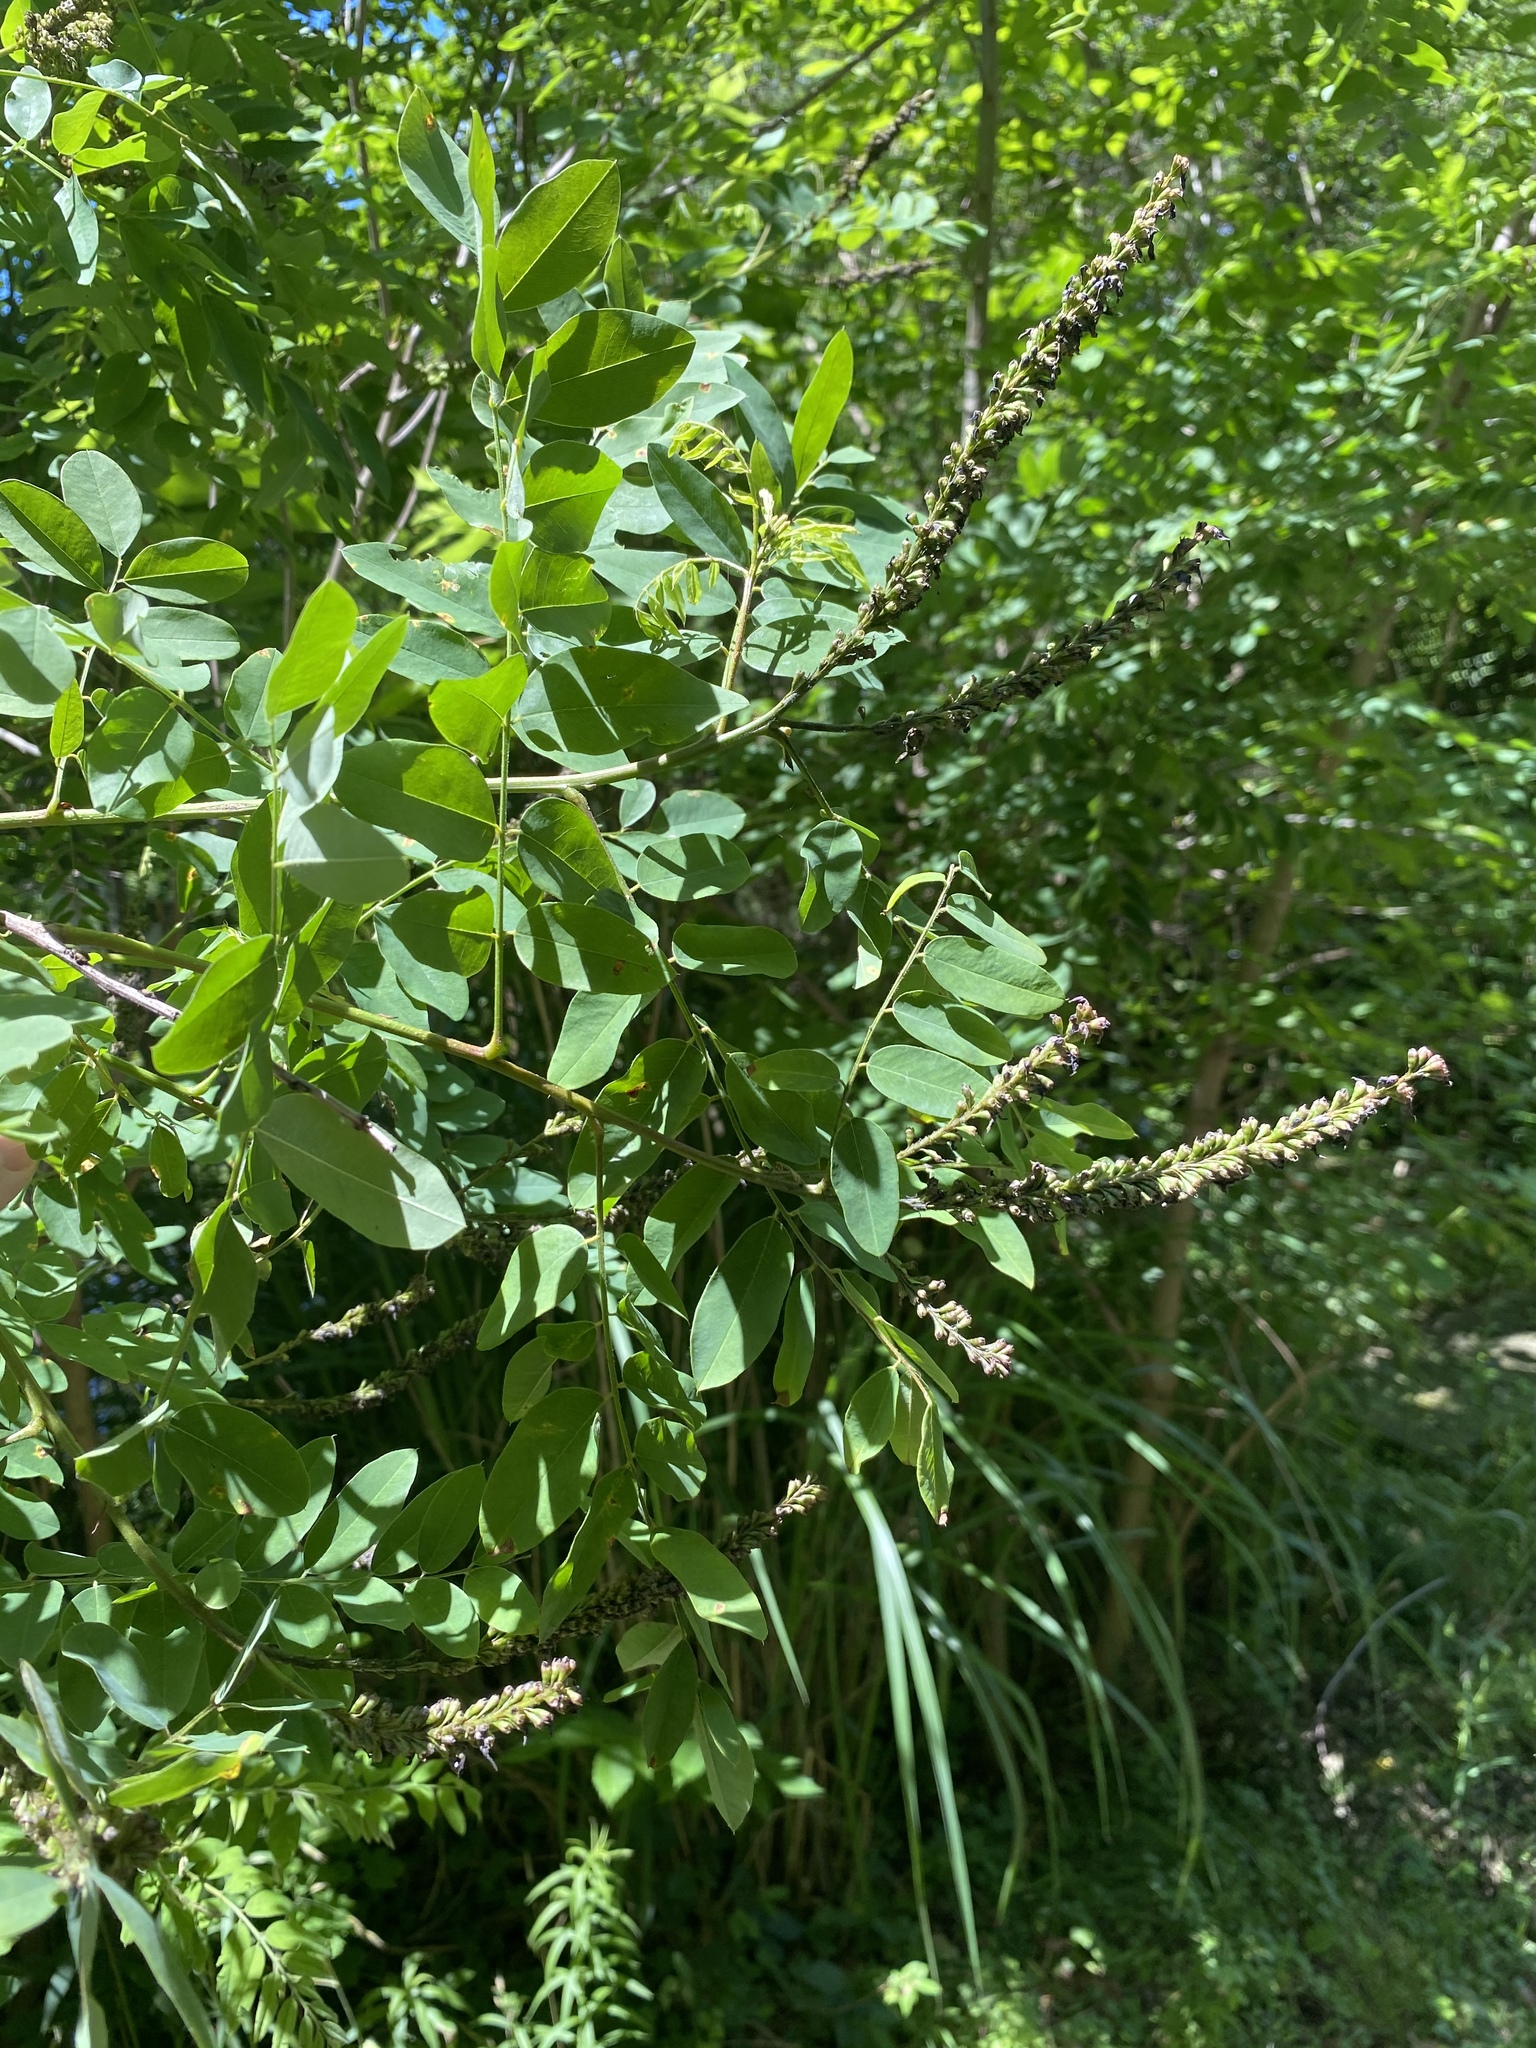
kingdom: Plantae
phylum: Tracheophyta
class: Magnoliopsida
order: Fabales
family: Fabaceae
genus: Amorpha
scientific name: Amorpha fruticosa
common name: False indigo
